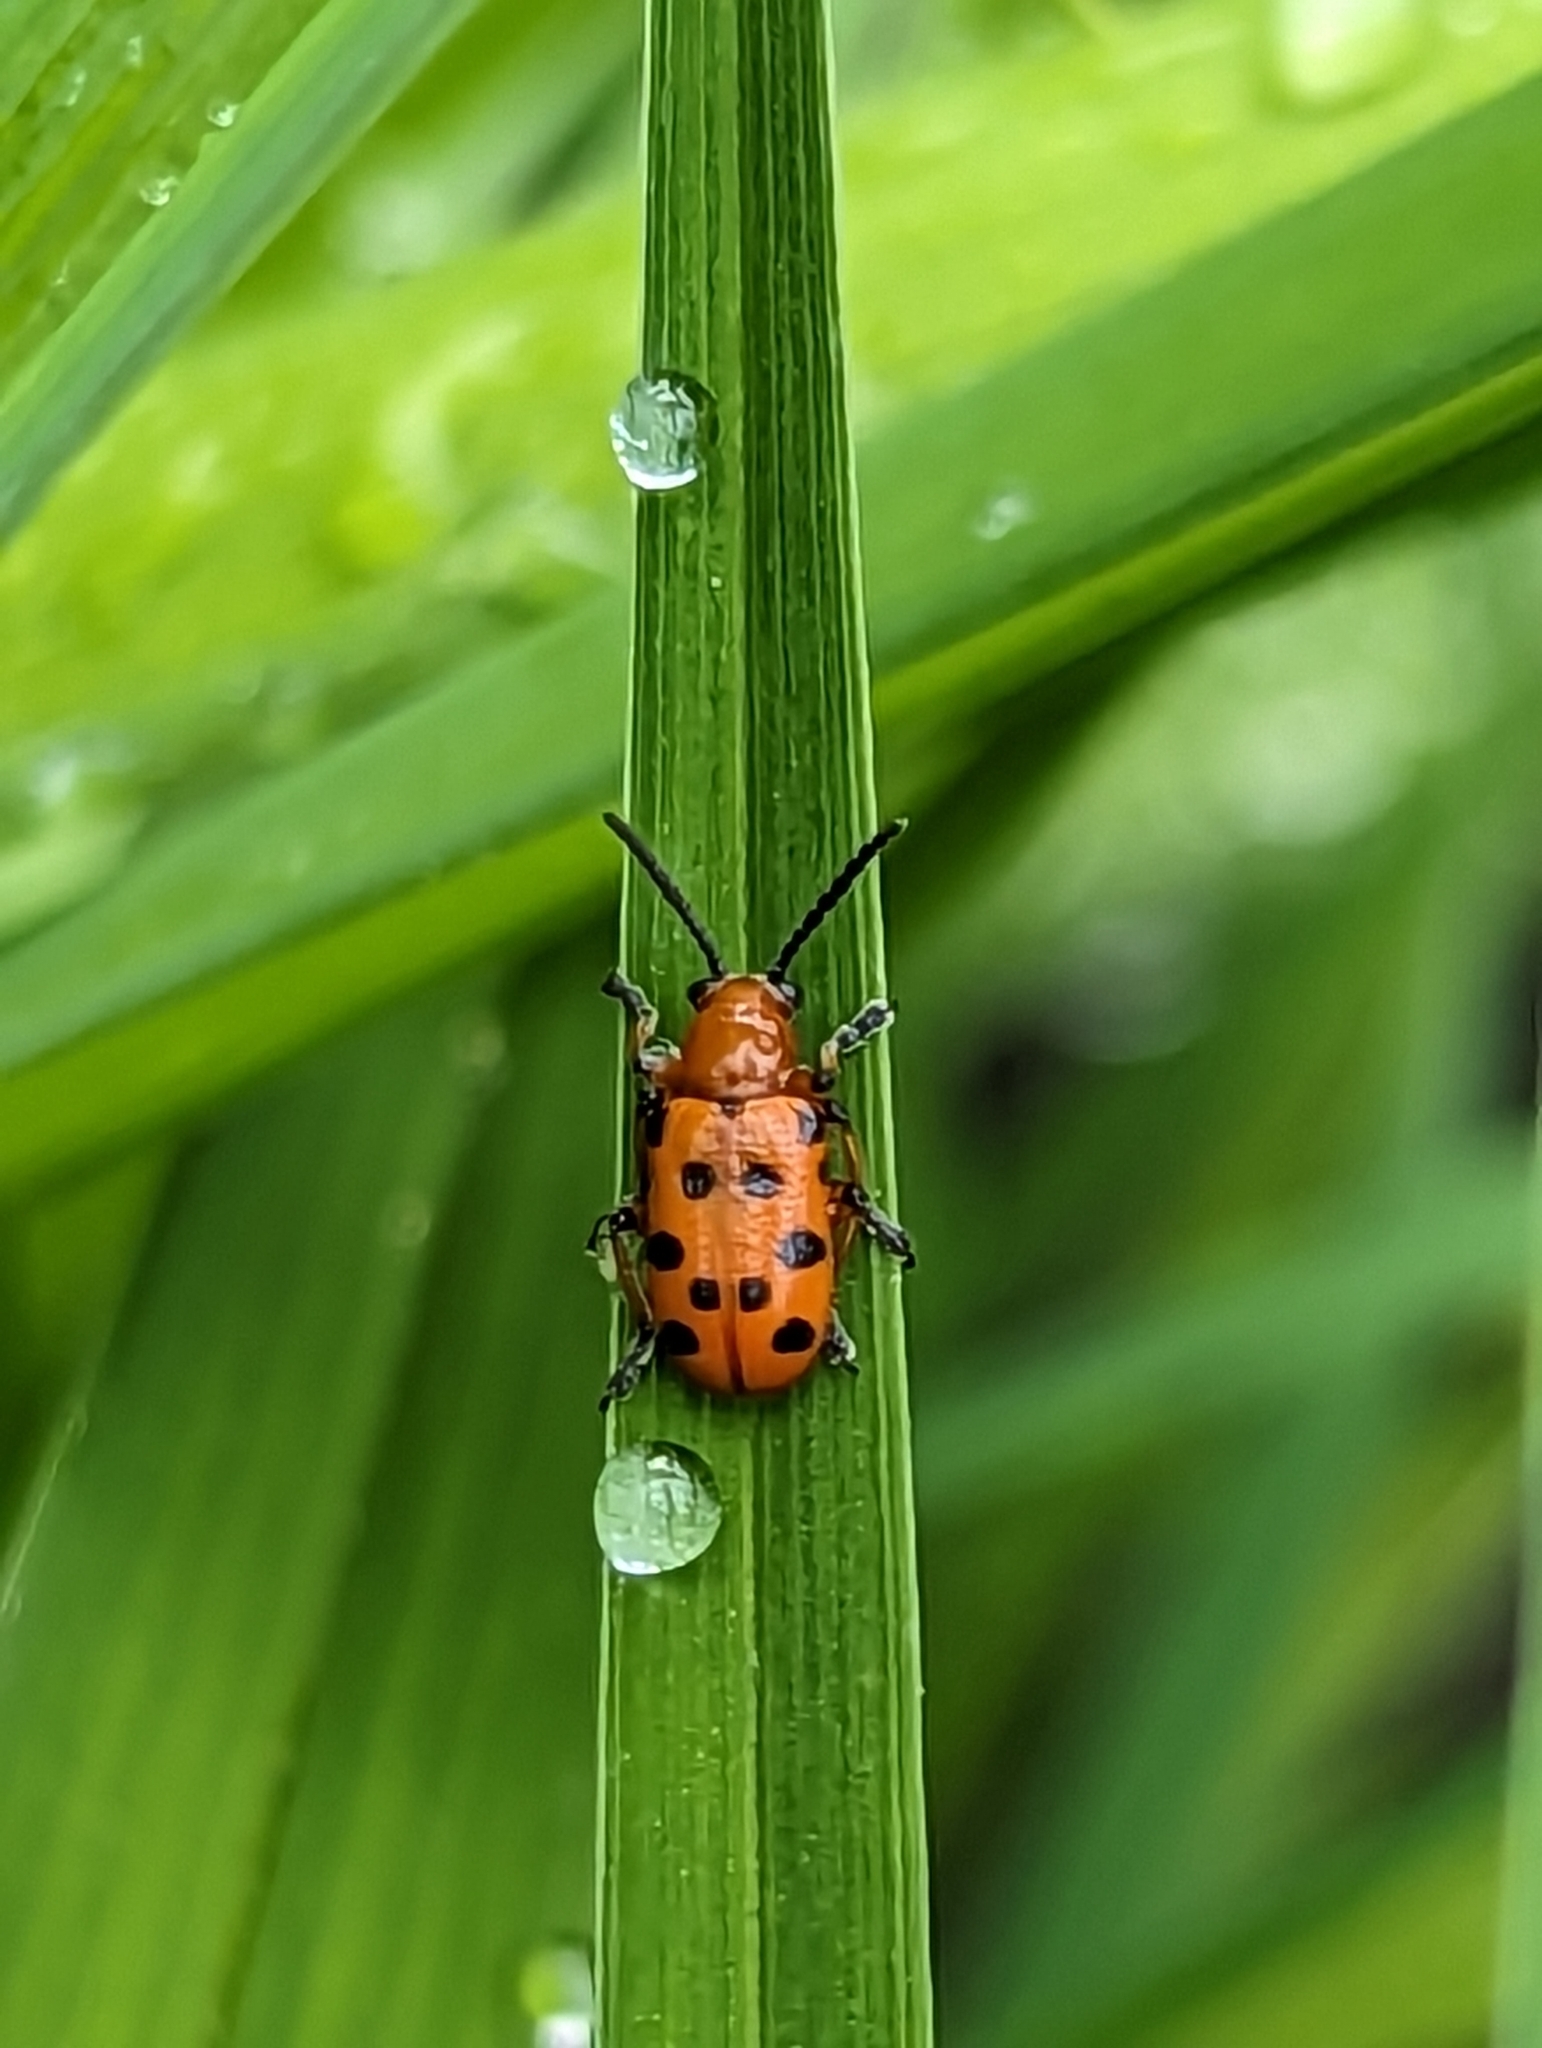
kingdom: Animalia
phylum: Arthropoda
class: Insecta
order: Coleoptera
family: Chrysomelidae
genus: Crioceris
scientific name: Crioceris duodecimpunctata
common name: Twelve-spotted asparagus beetle
